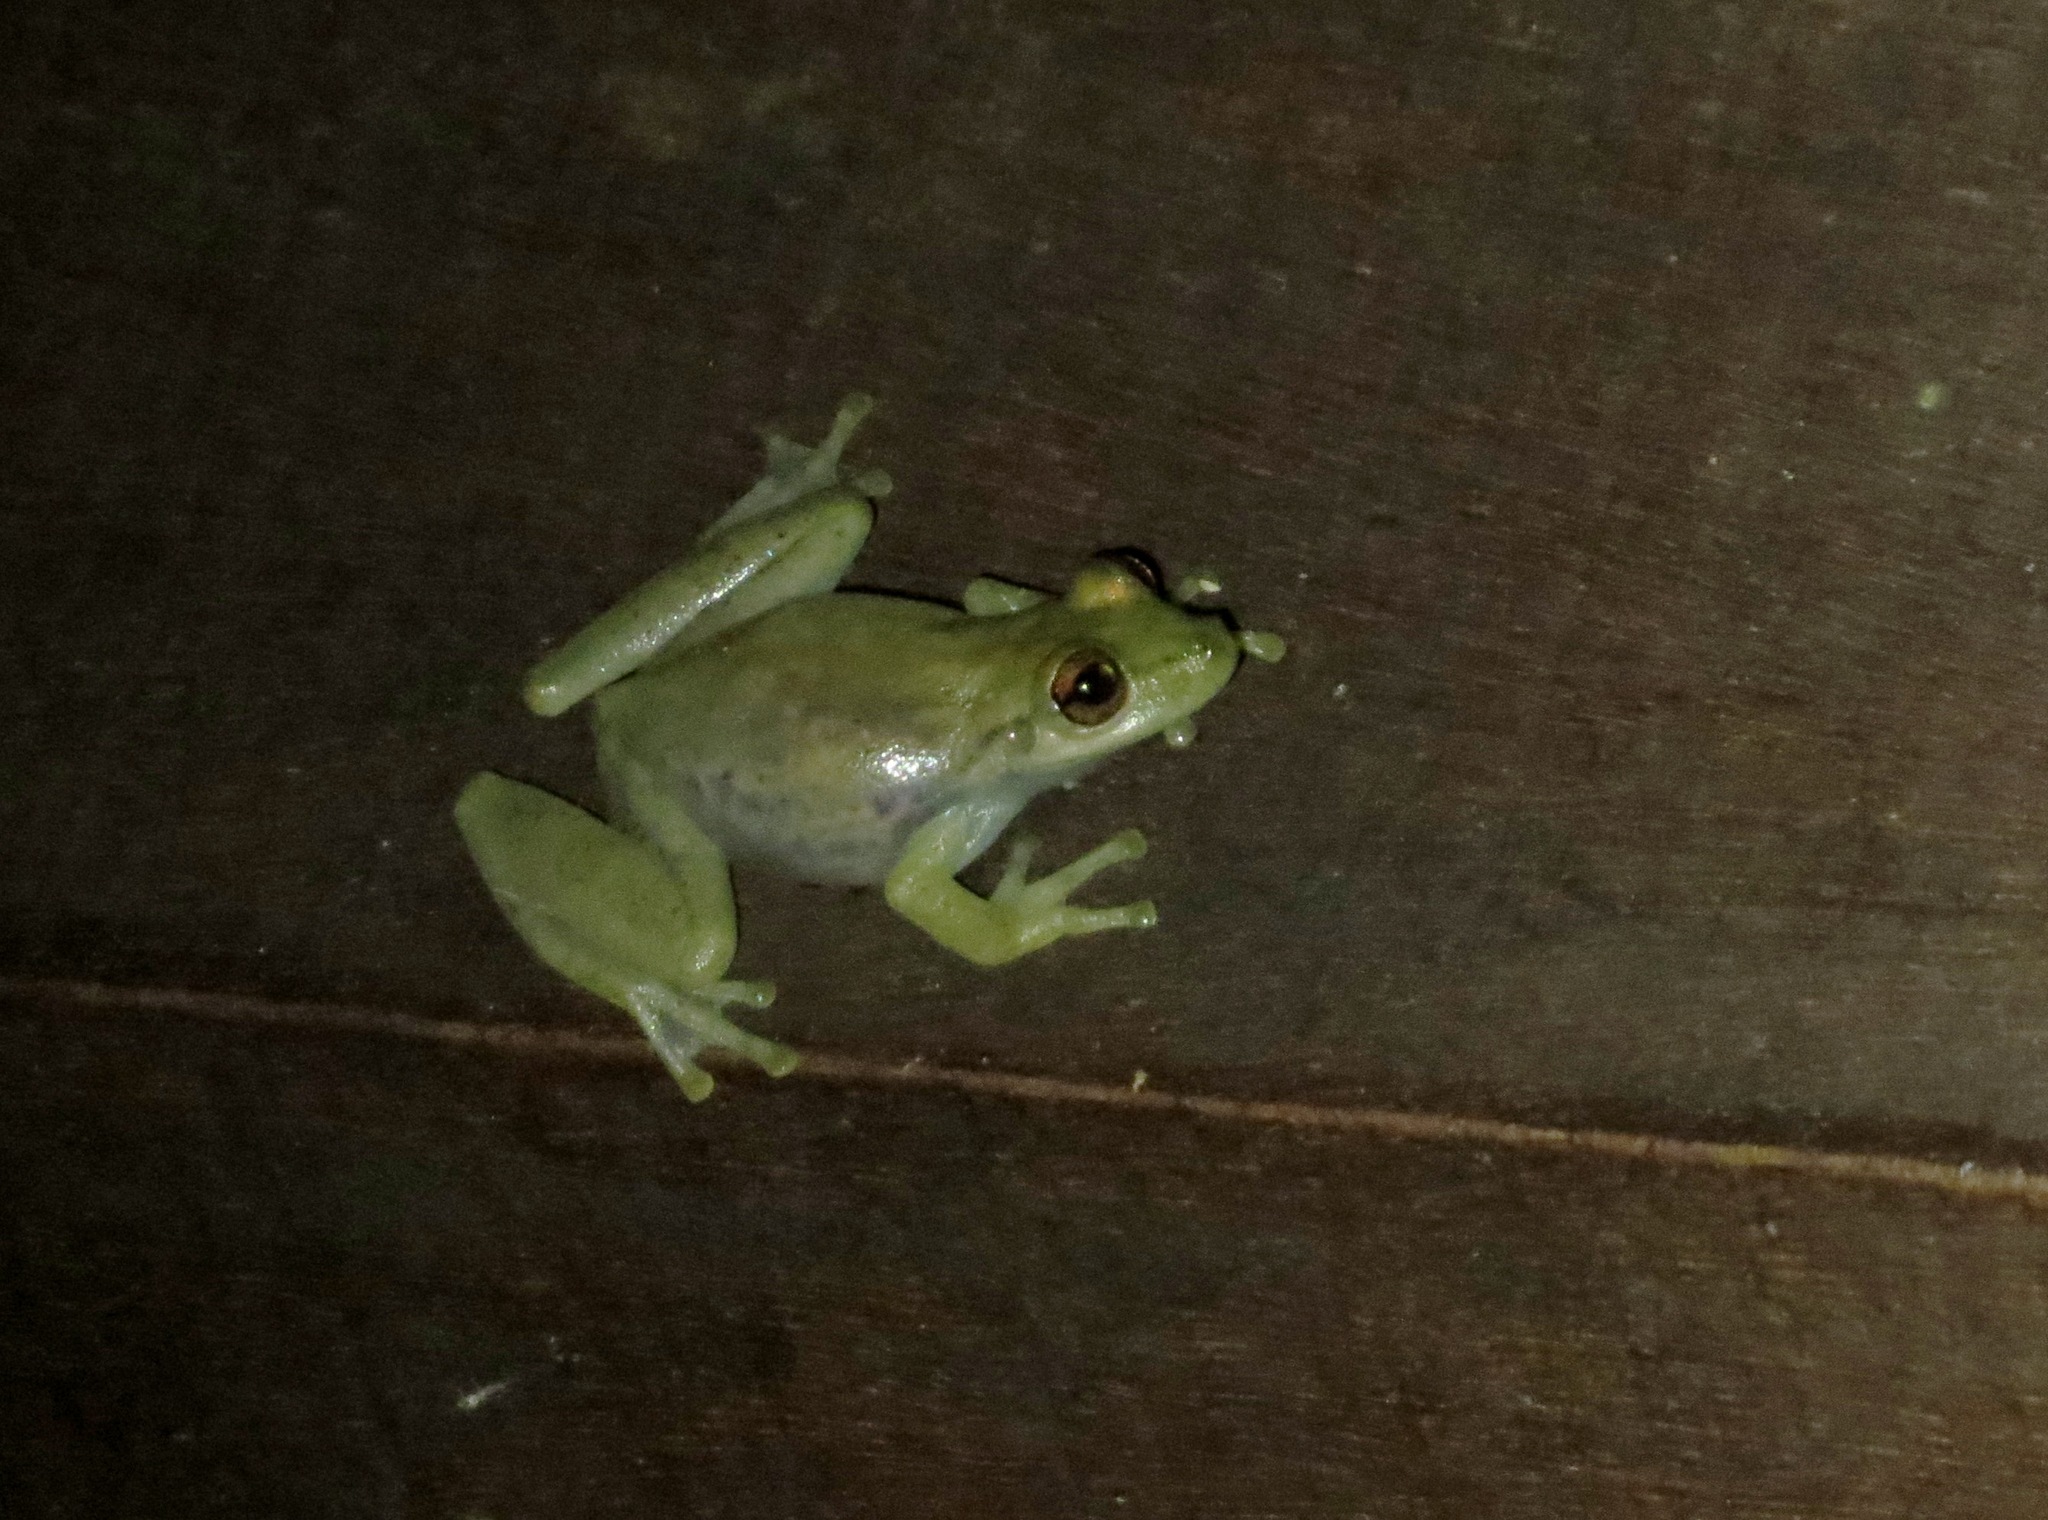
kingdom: Animalia
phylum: Chordata
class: Amphibia
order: Anura
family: Hylidae
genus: Scinax
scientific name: Scinax elaeochroa
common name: Sipurio snouted treefrog
